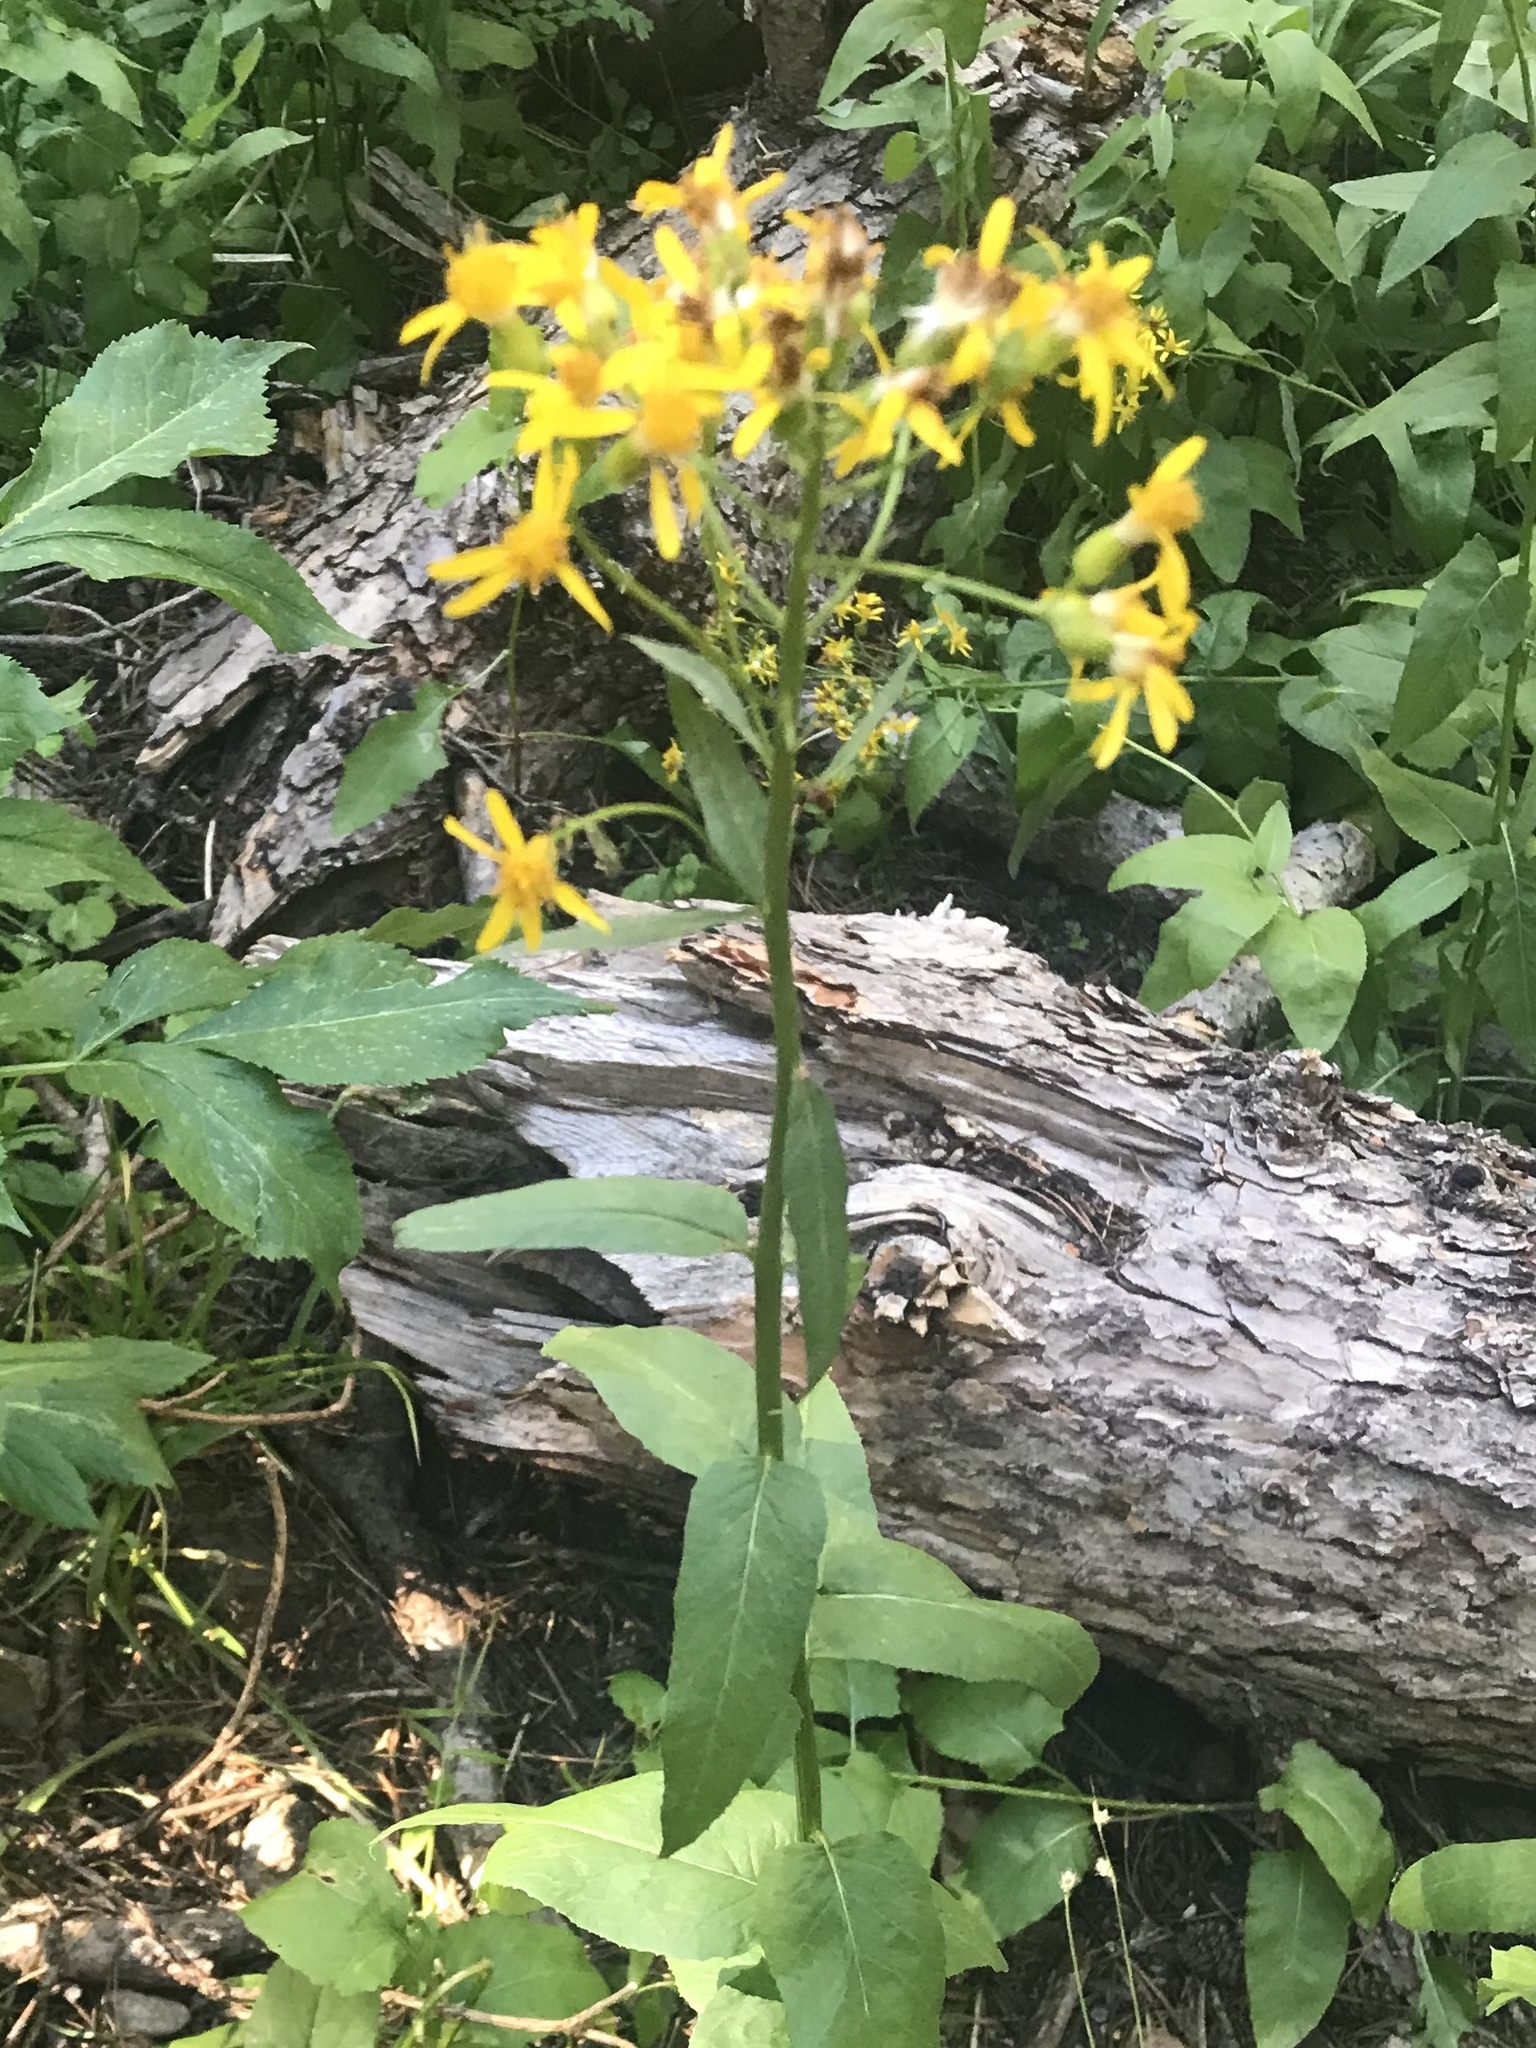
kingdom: Plantae
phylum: Tracheophyta
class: Magnoliopsida
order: Asterales
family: Asteraceae
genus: Senecio
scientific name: Senecio triangularis
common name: Arrowleaf butterweed
